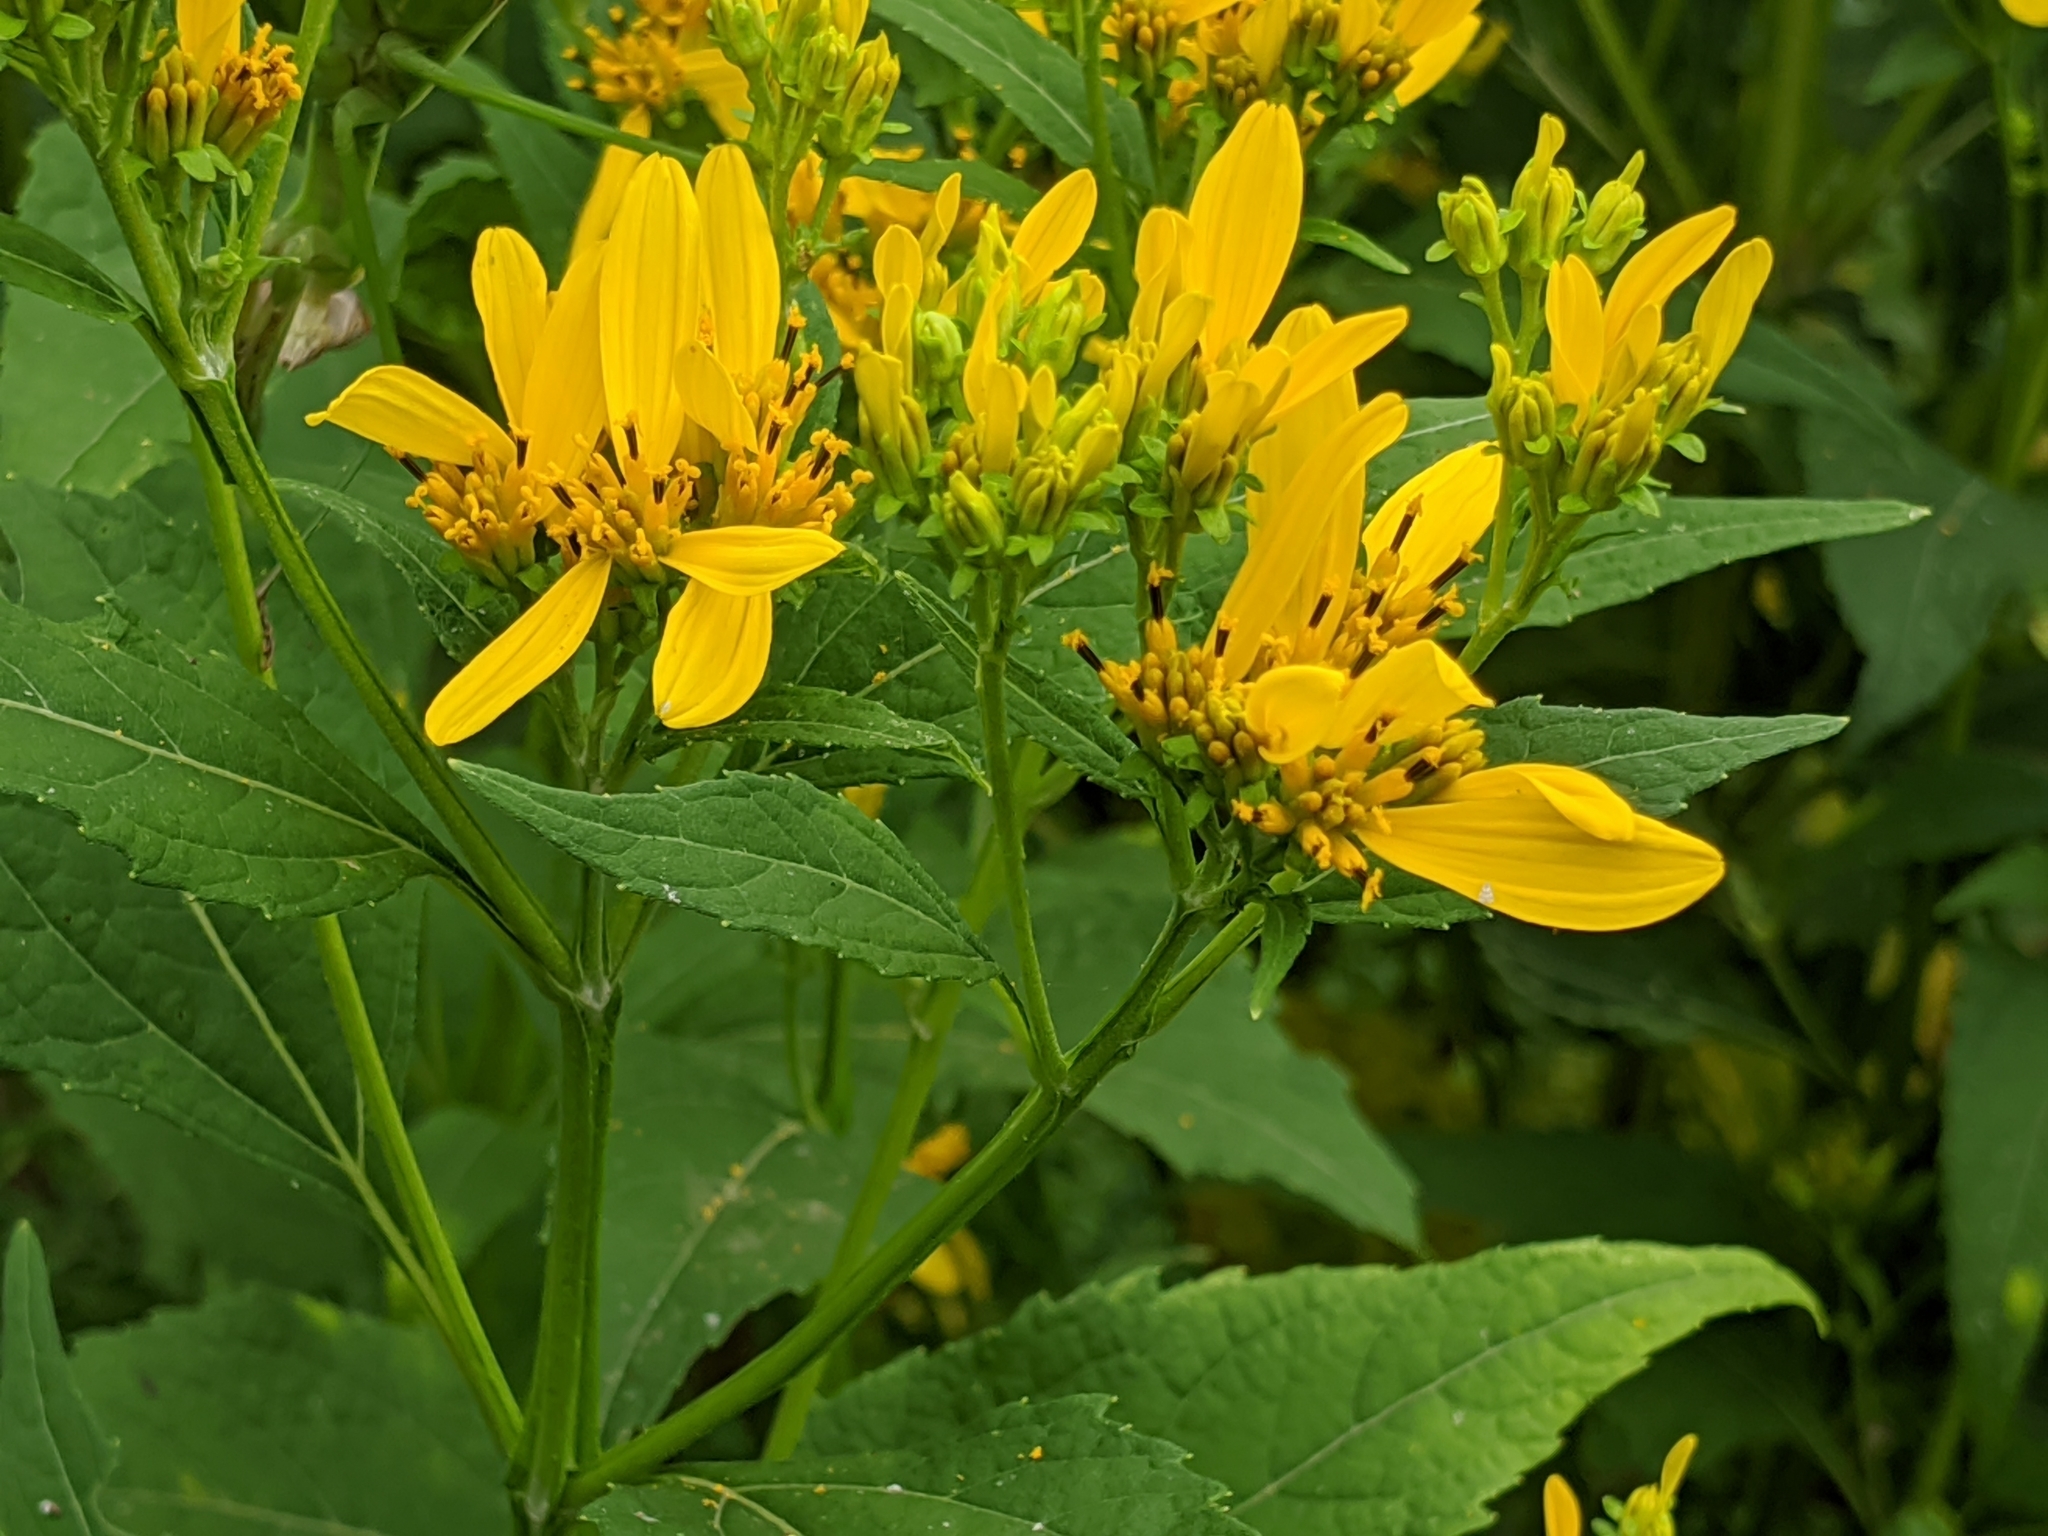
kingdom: Plantae
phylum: Tracheophyta
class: Magnoliopsida
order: Asterales
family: Asteraceae
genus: Verbesina
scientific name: Verbesina occidentalis
